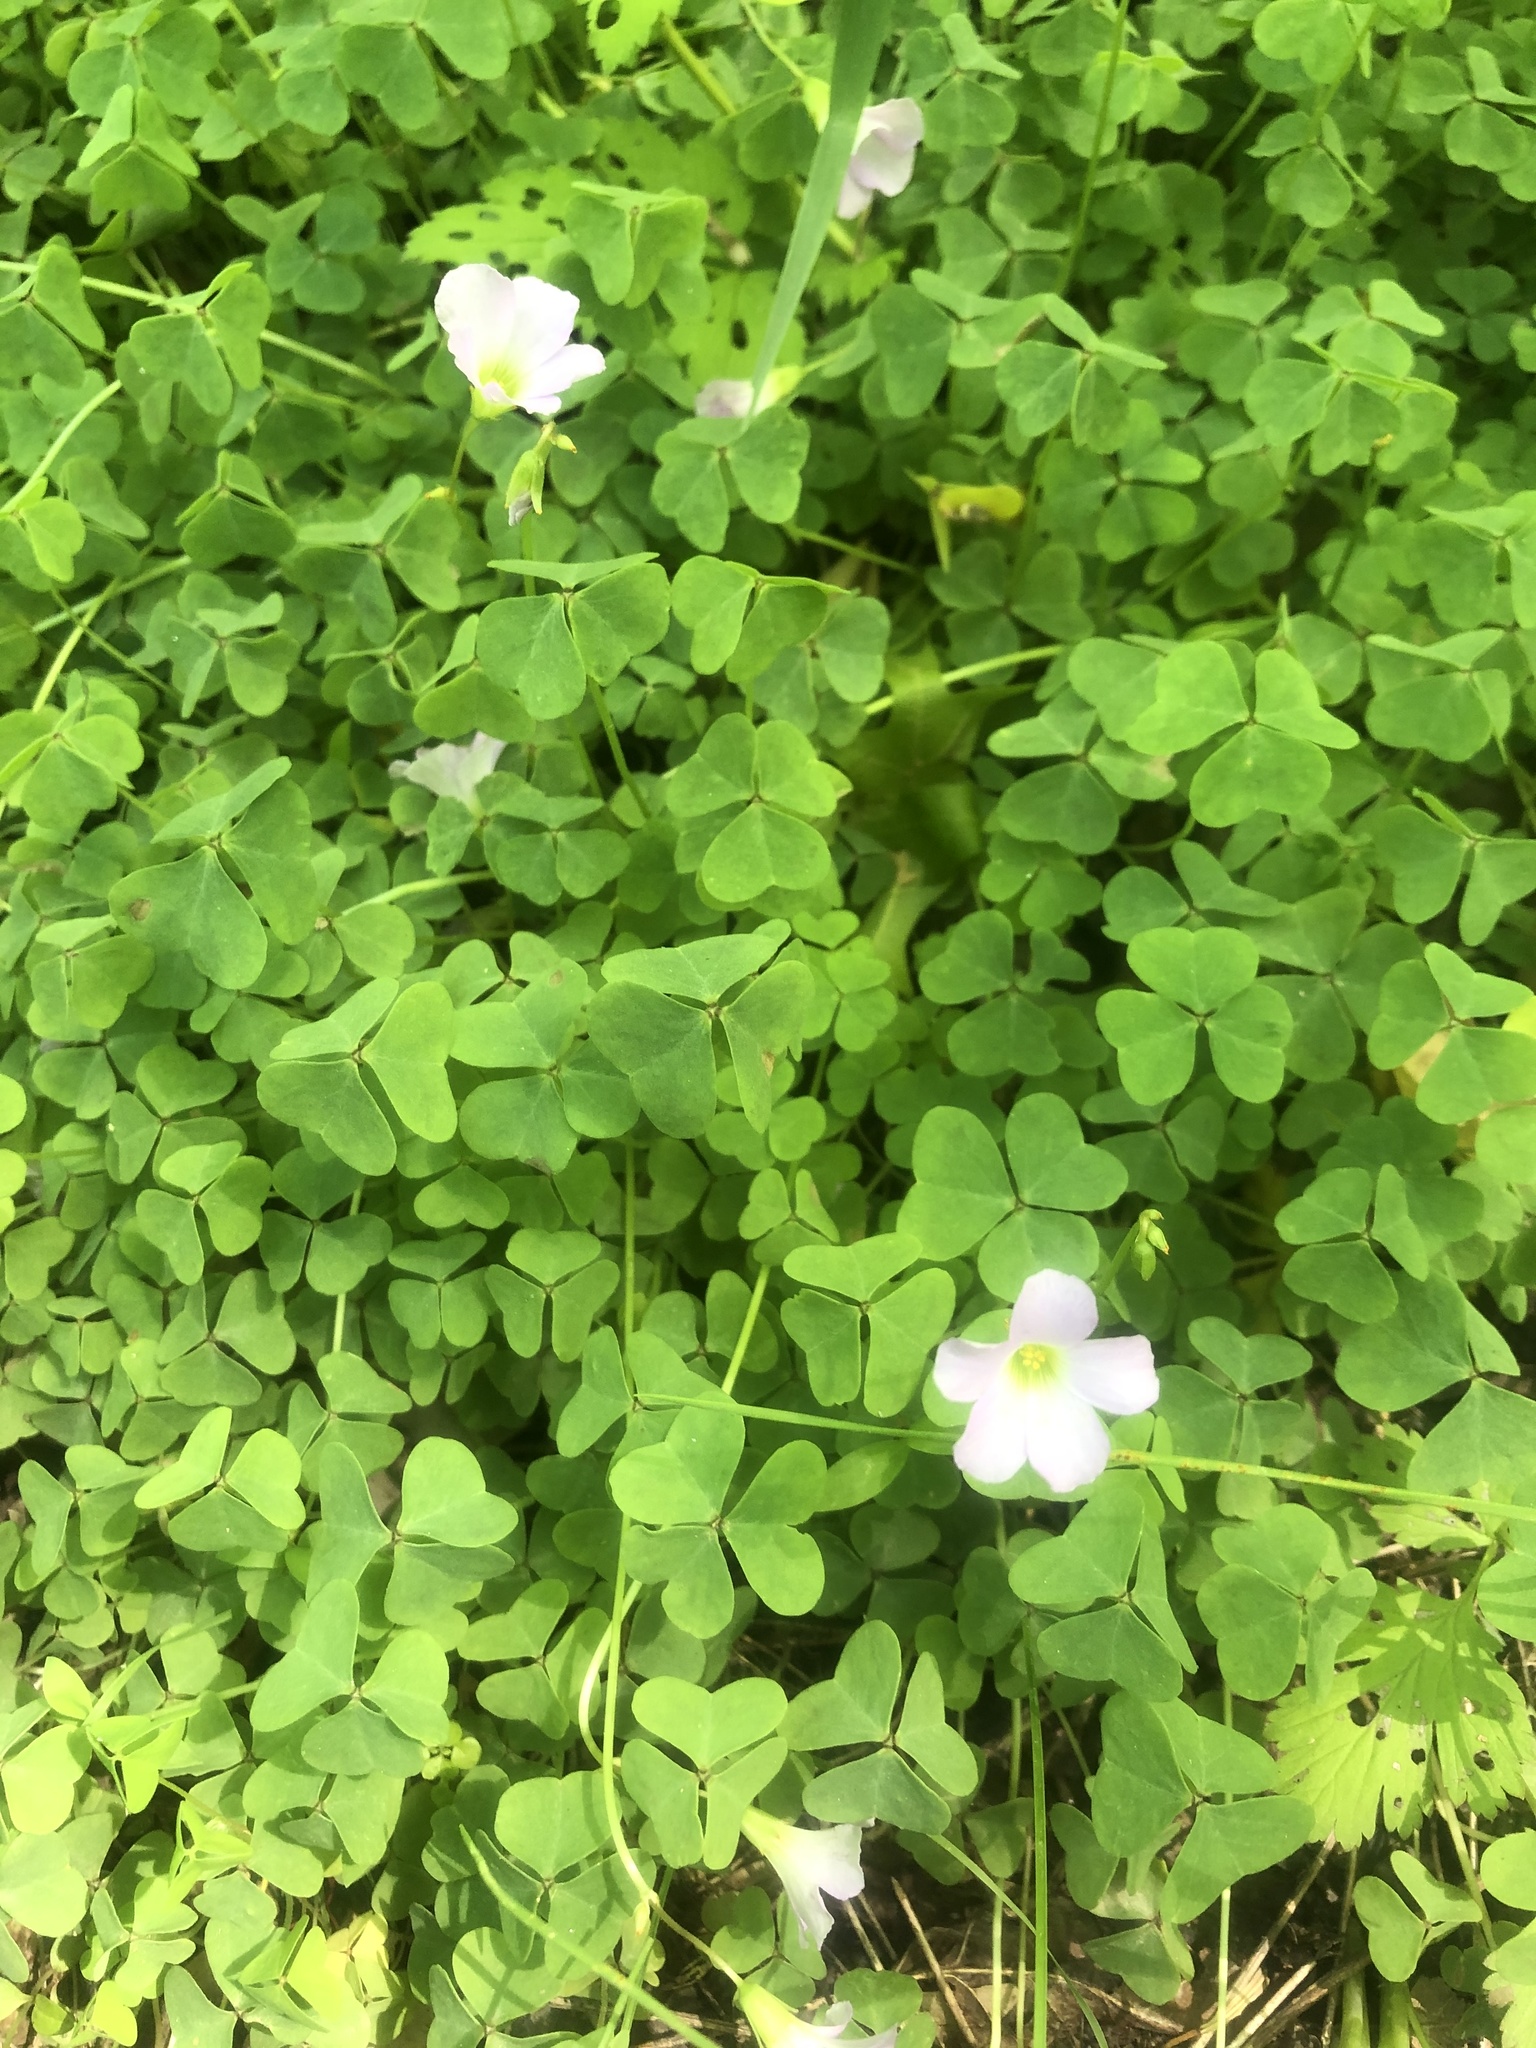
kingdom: Plantae
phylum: Tracheophyta
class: Magnoliopsida
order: Oxalidales
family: Oxalidaceae
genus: Oxalis
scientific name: Oxalis violacea
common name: Violet wood-sorrel
